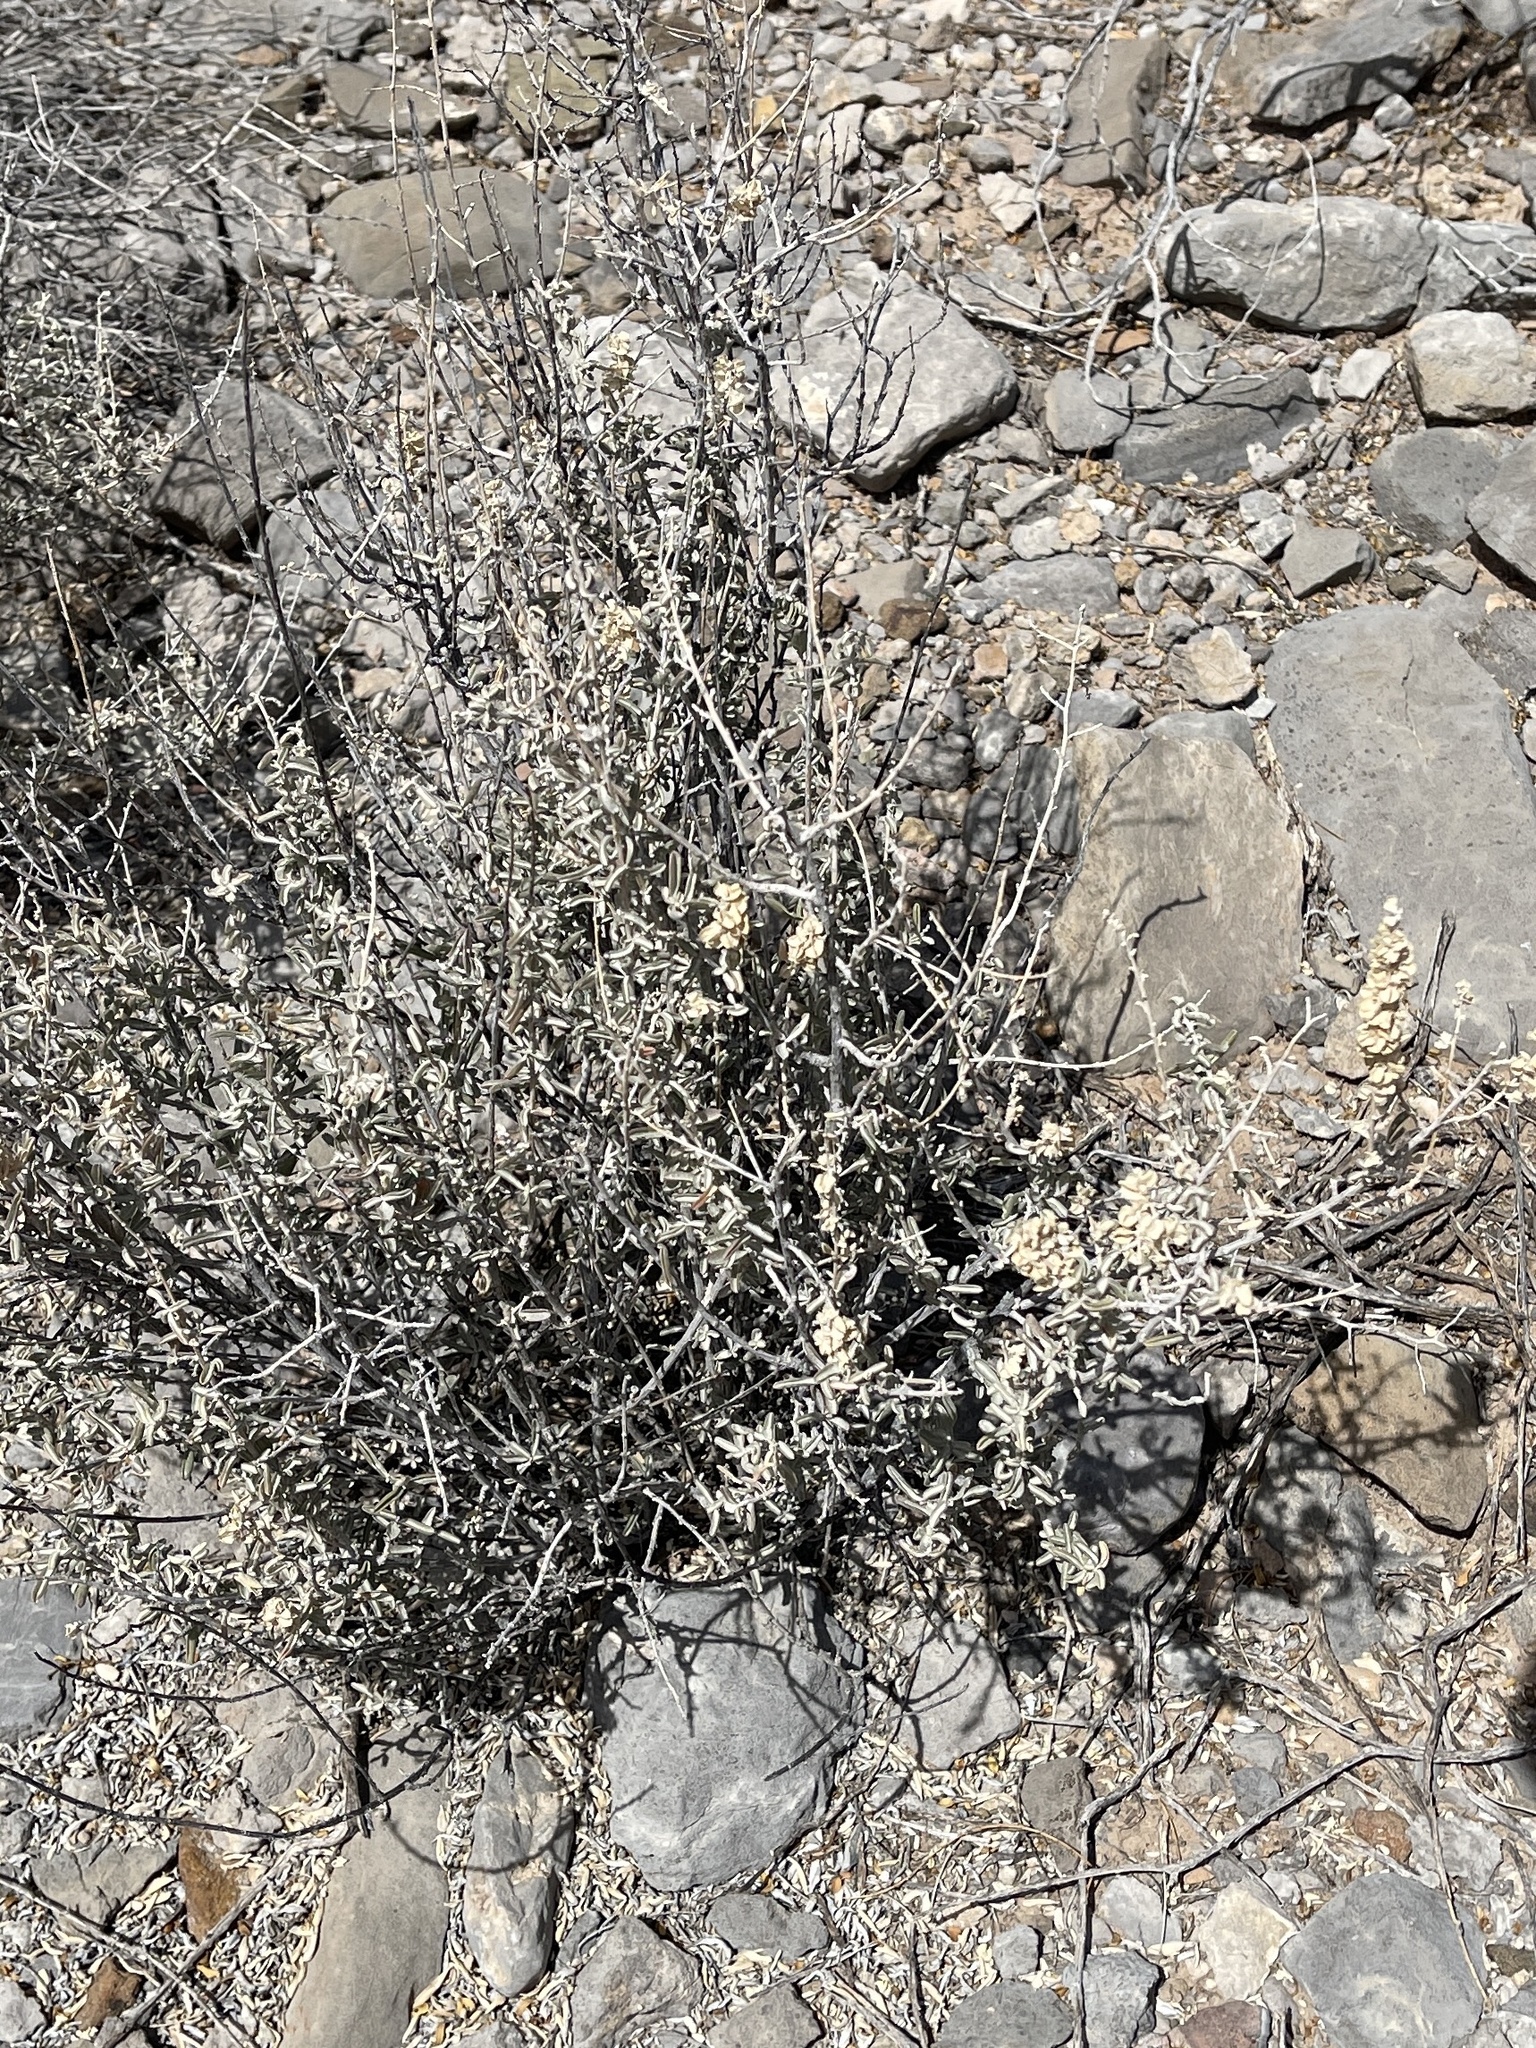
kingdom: Plantae
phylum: Tracheophyta
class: Magnoliopsida
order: Asterales
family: Asteraceae
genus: Parthenium
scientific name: Parthenium incanum
